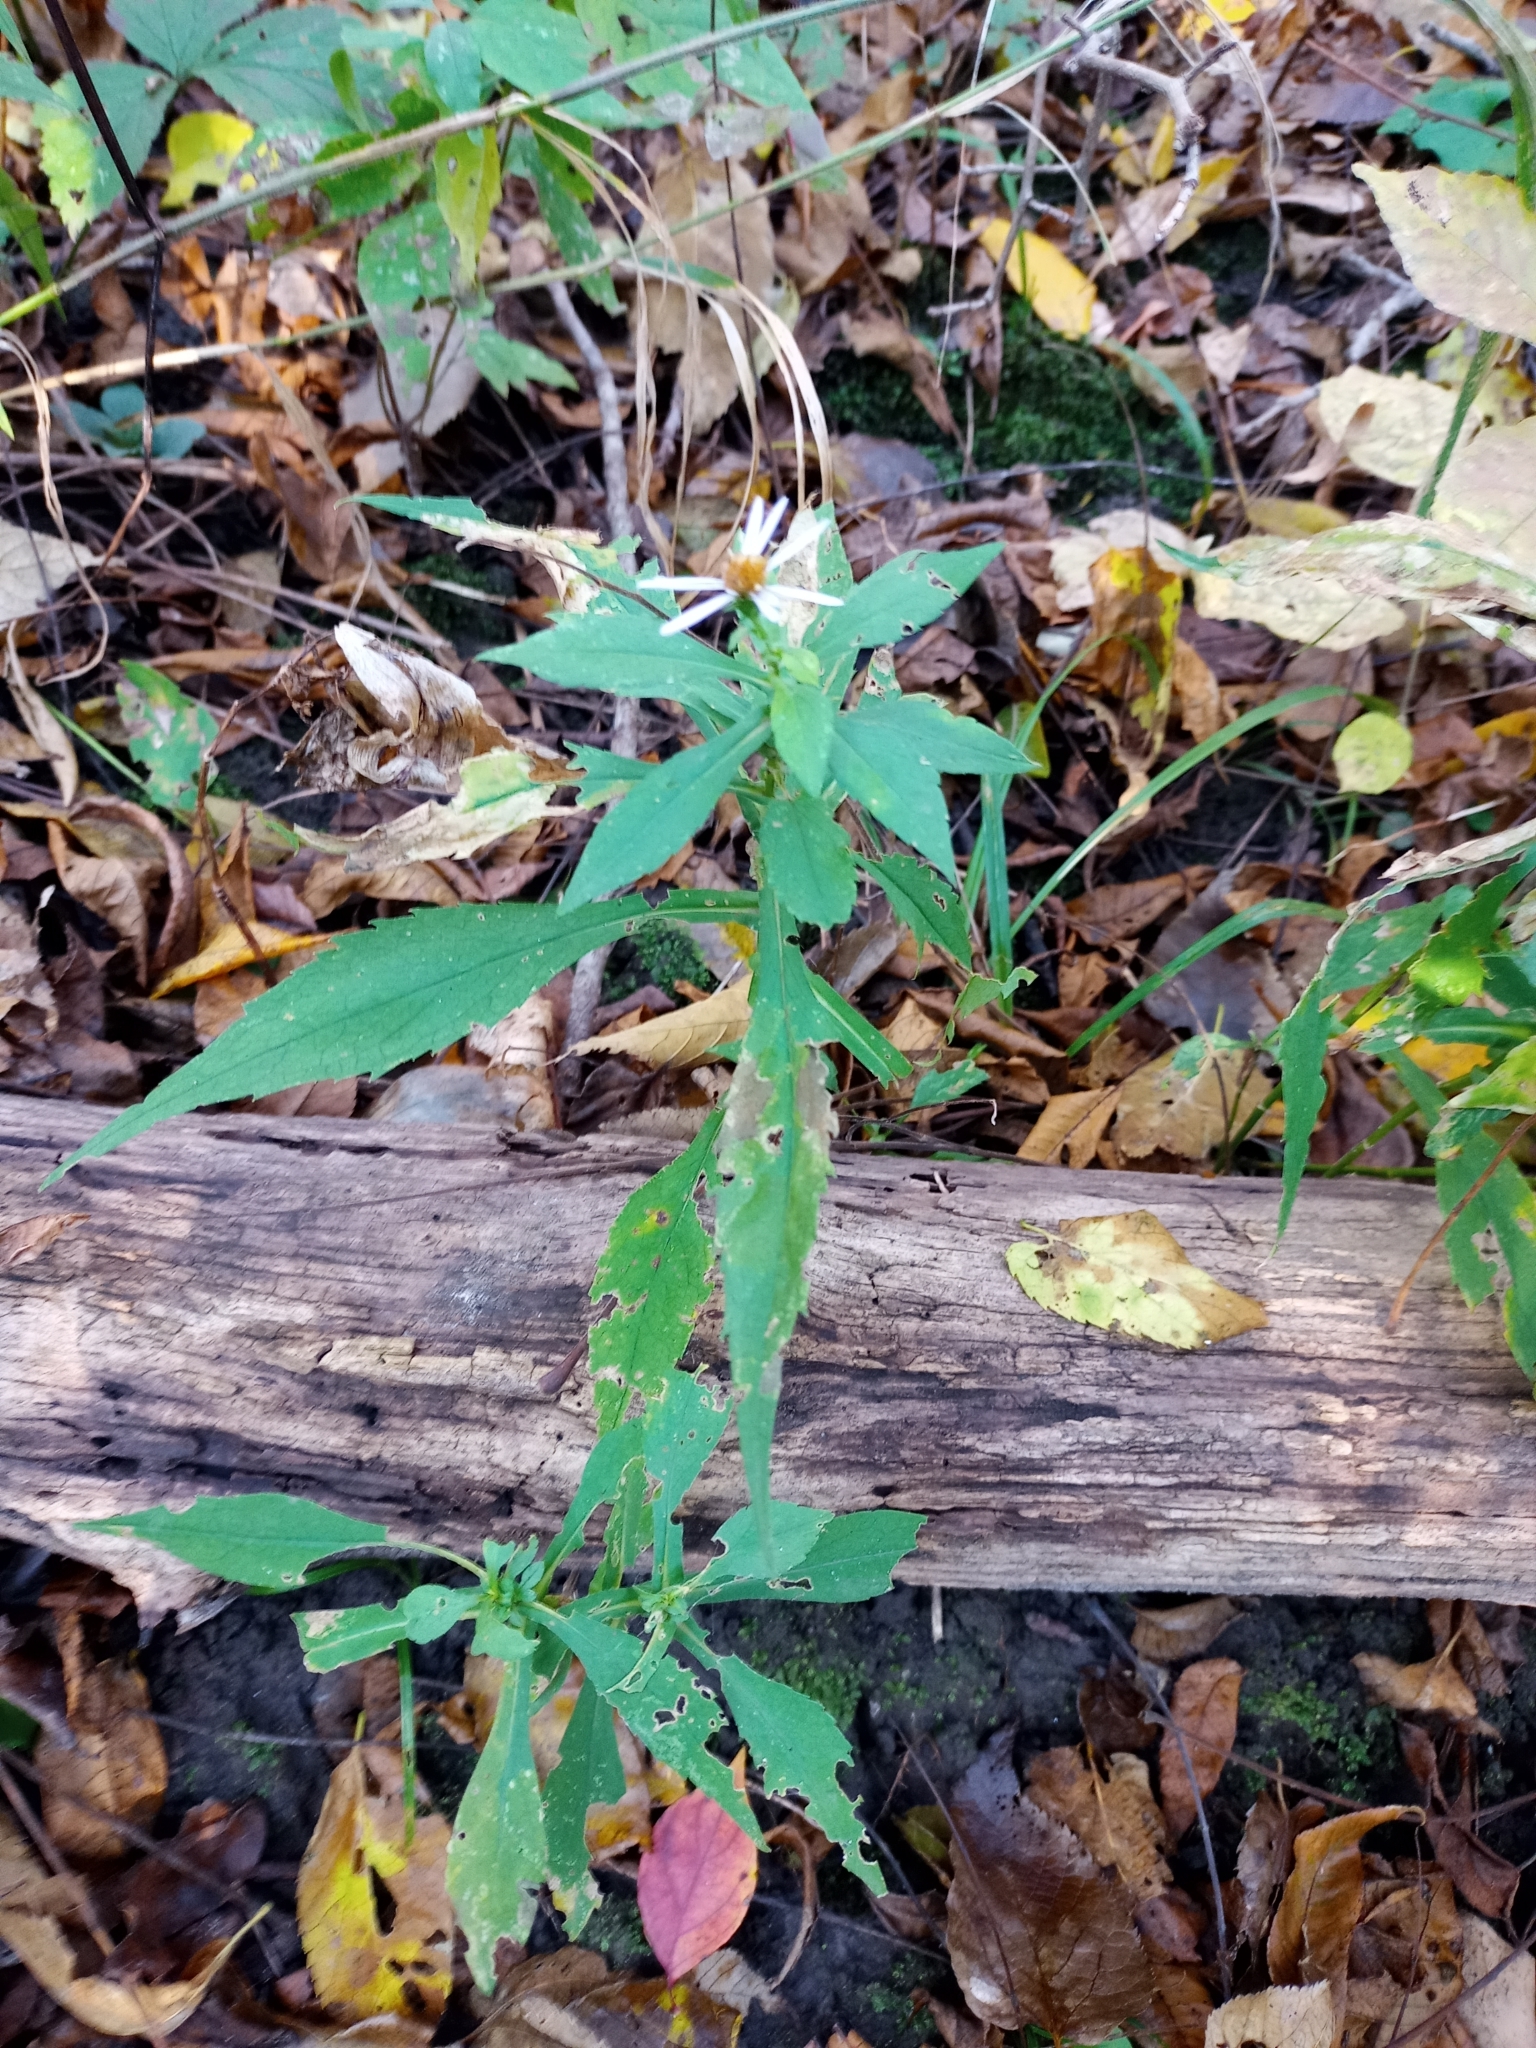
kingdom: Plantae
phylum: Tracheophyta
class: Magnoliopsida
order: Asterales
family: Asteraceae
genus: Symphyotrichum
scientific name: Symphyotrichum prenanthoides
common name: Crooked-stem aster
